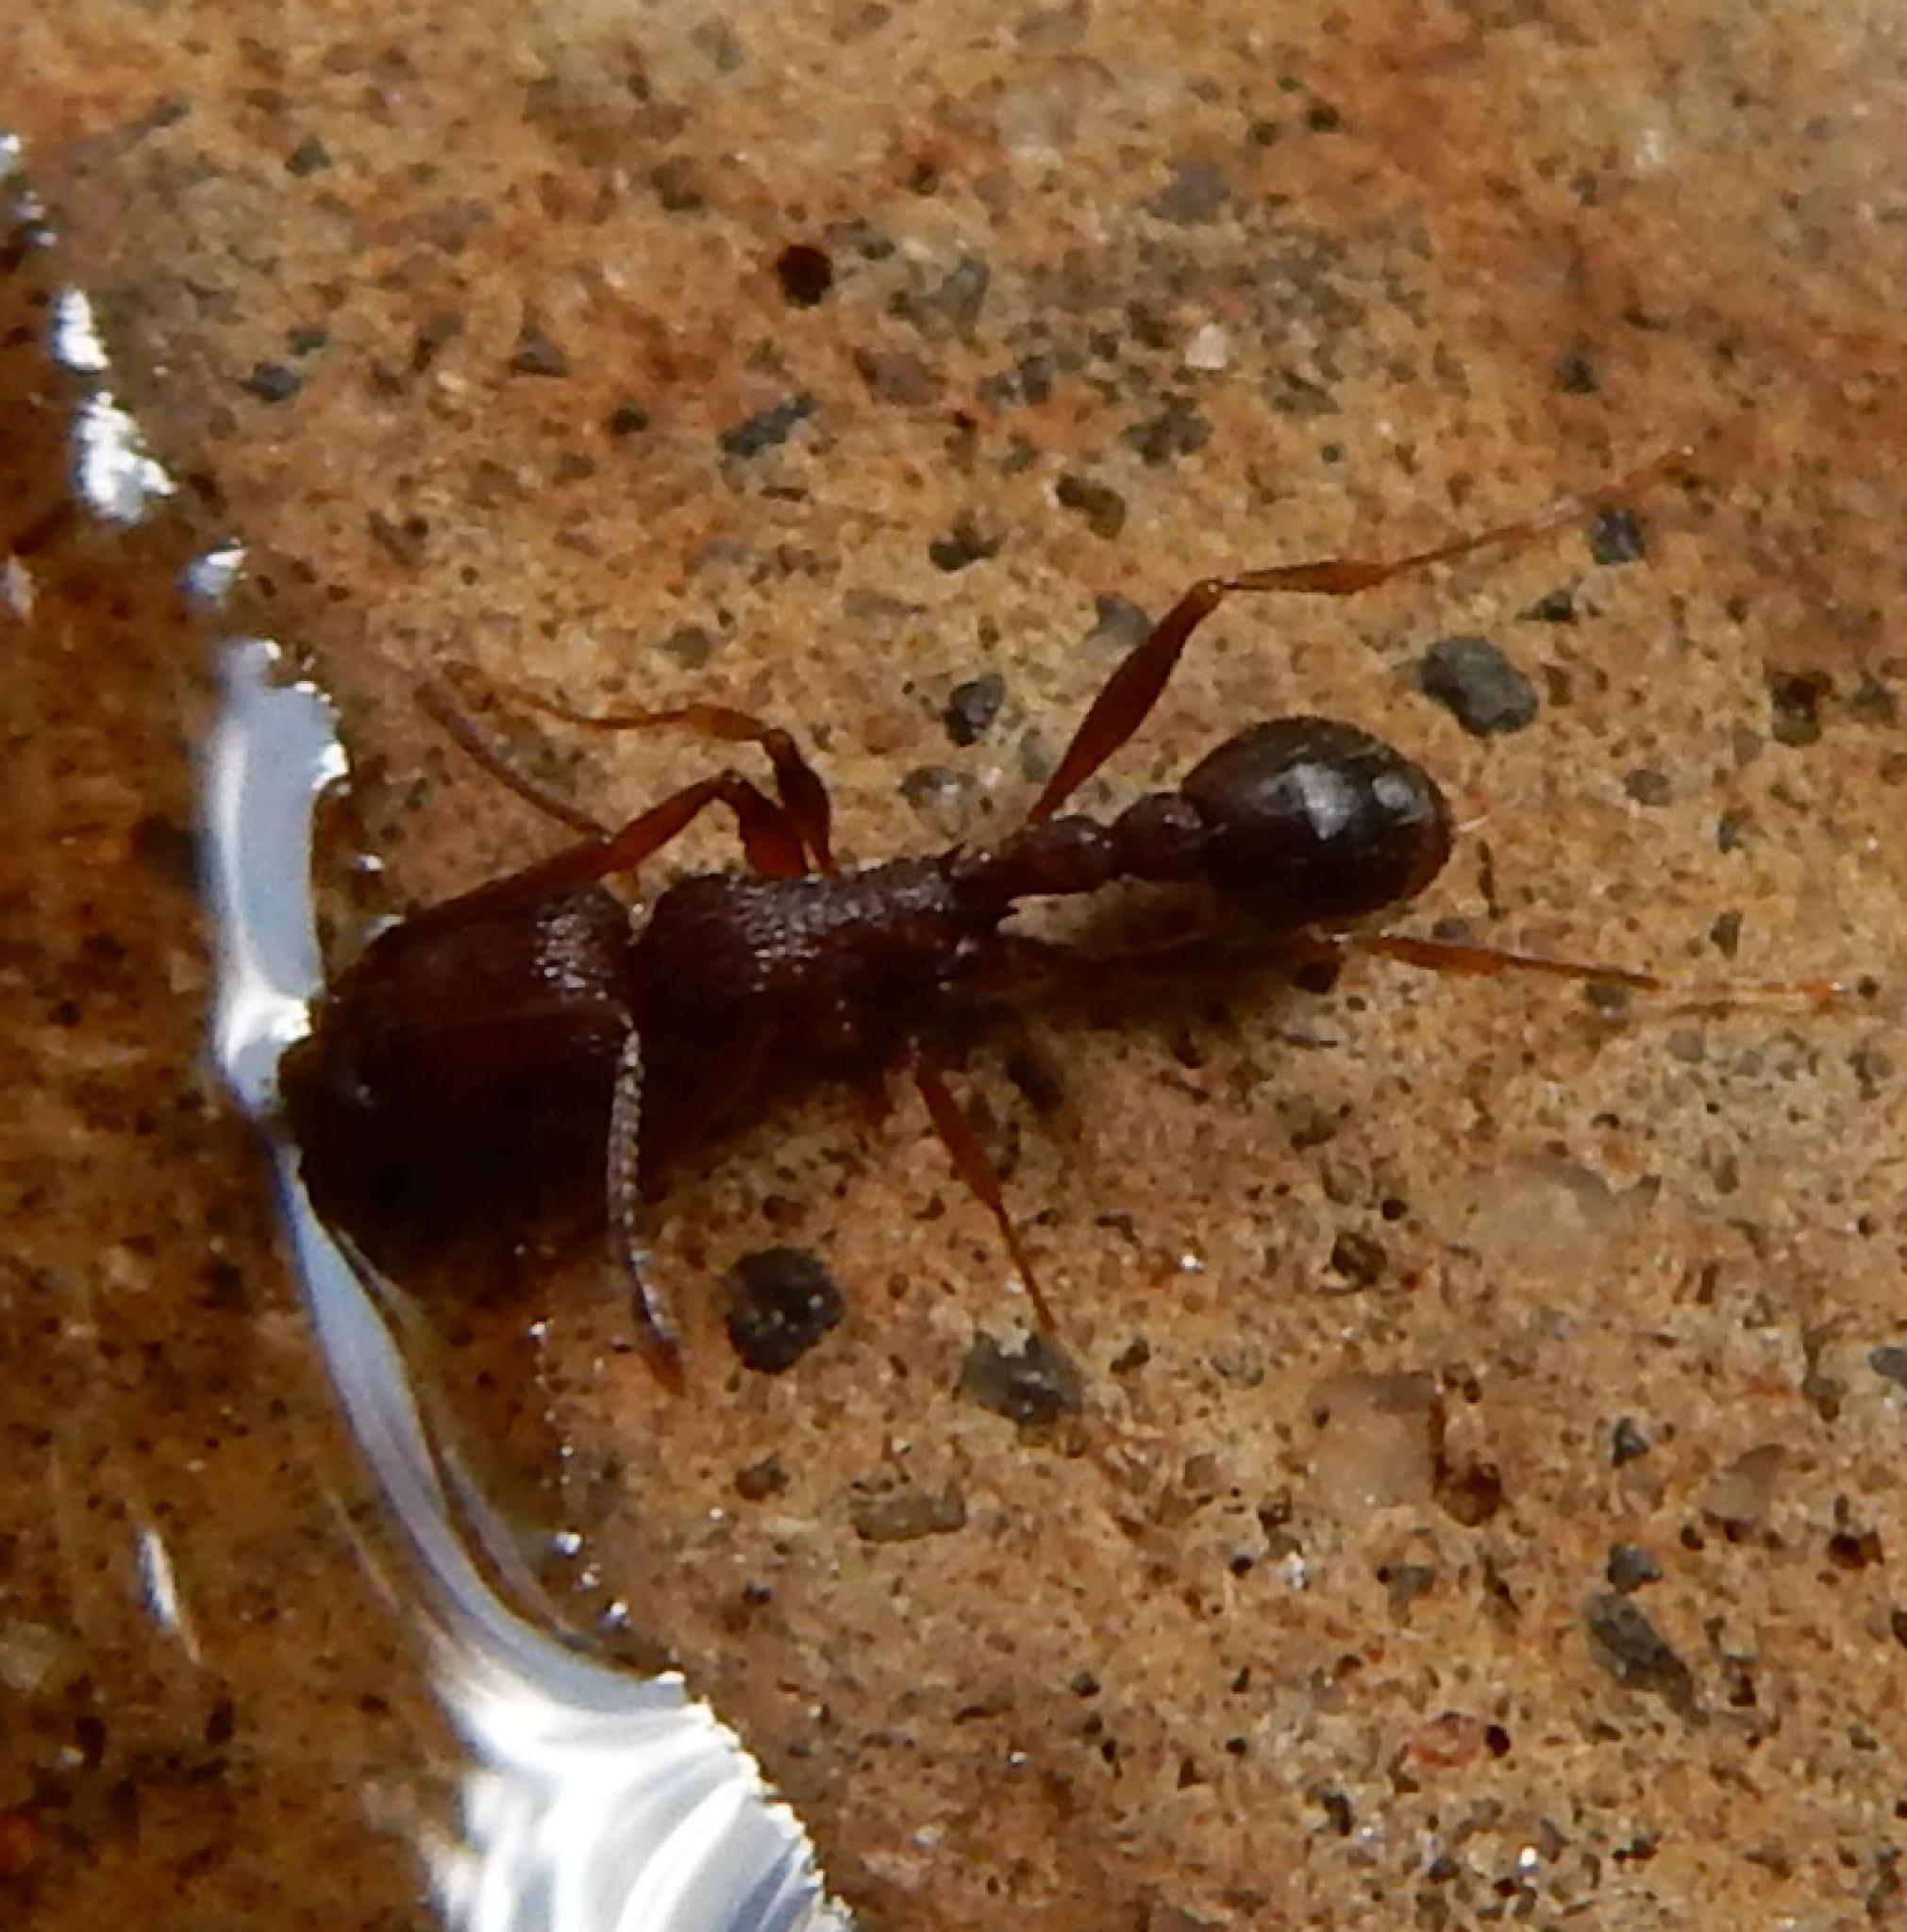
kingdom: Animalia
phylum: Arthropoda
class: Insecta
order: Hymenoptera
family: Formicidae
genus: Tetramorium
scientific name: Tetramorium sericeiventre
